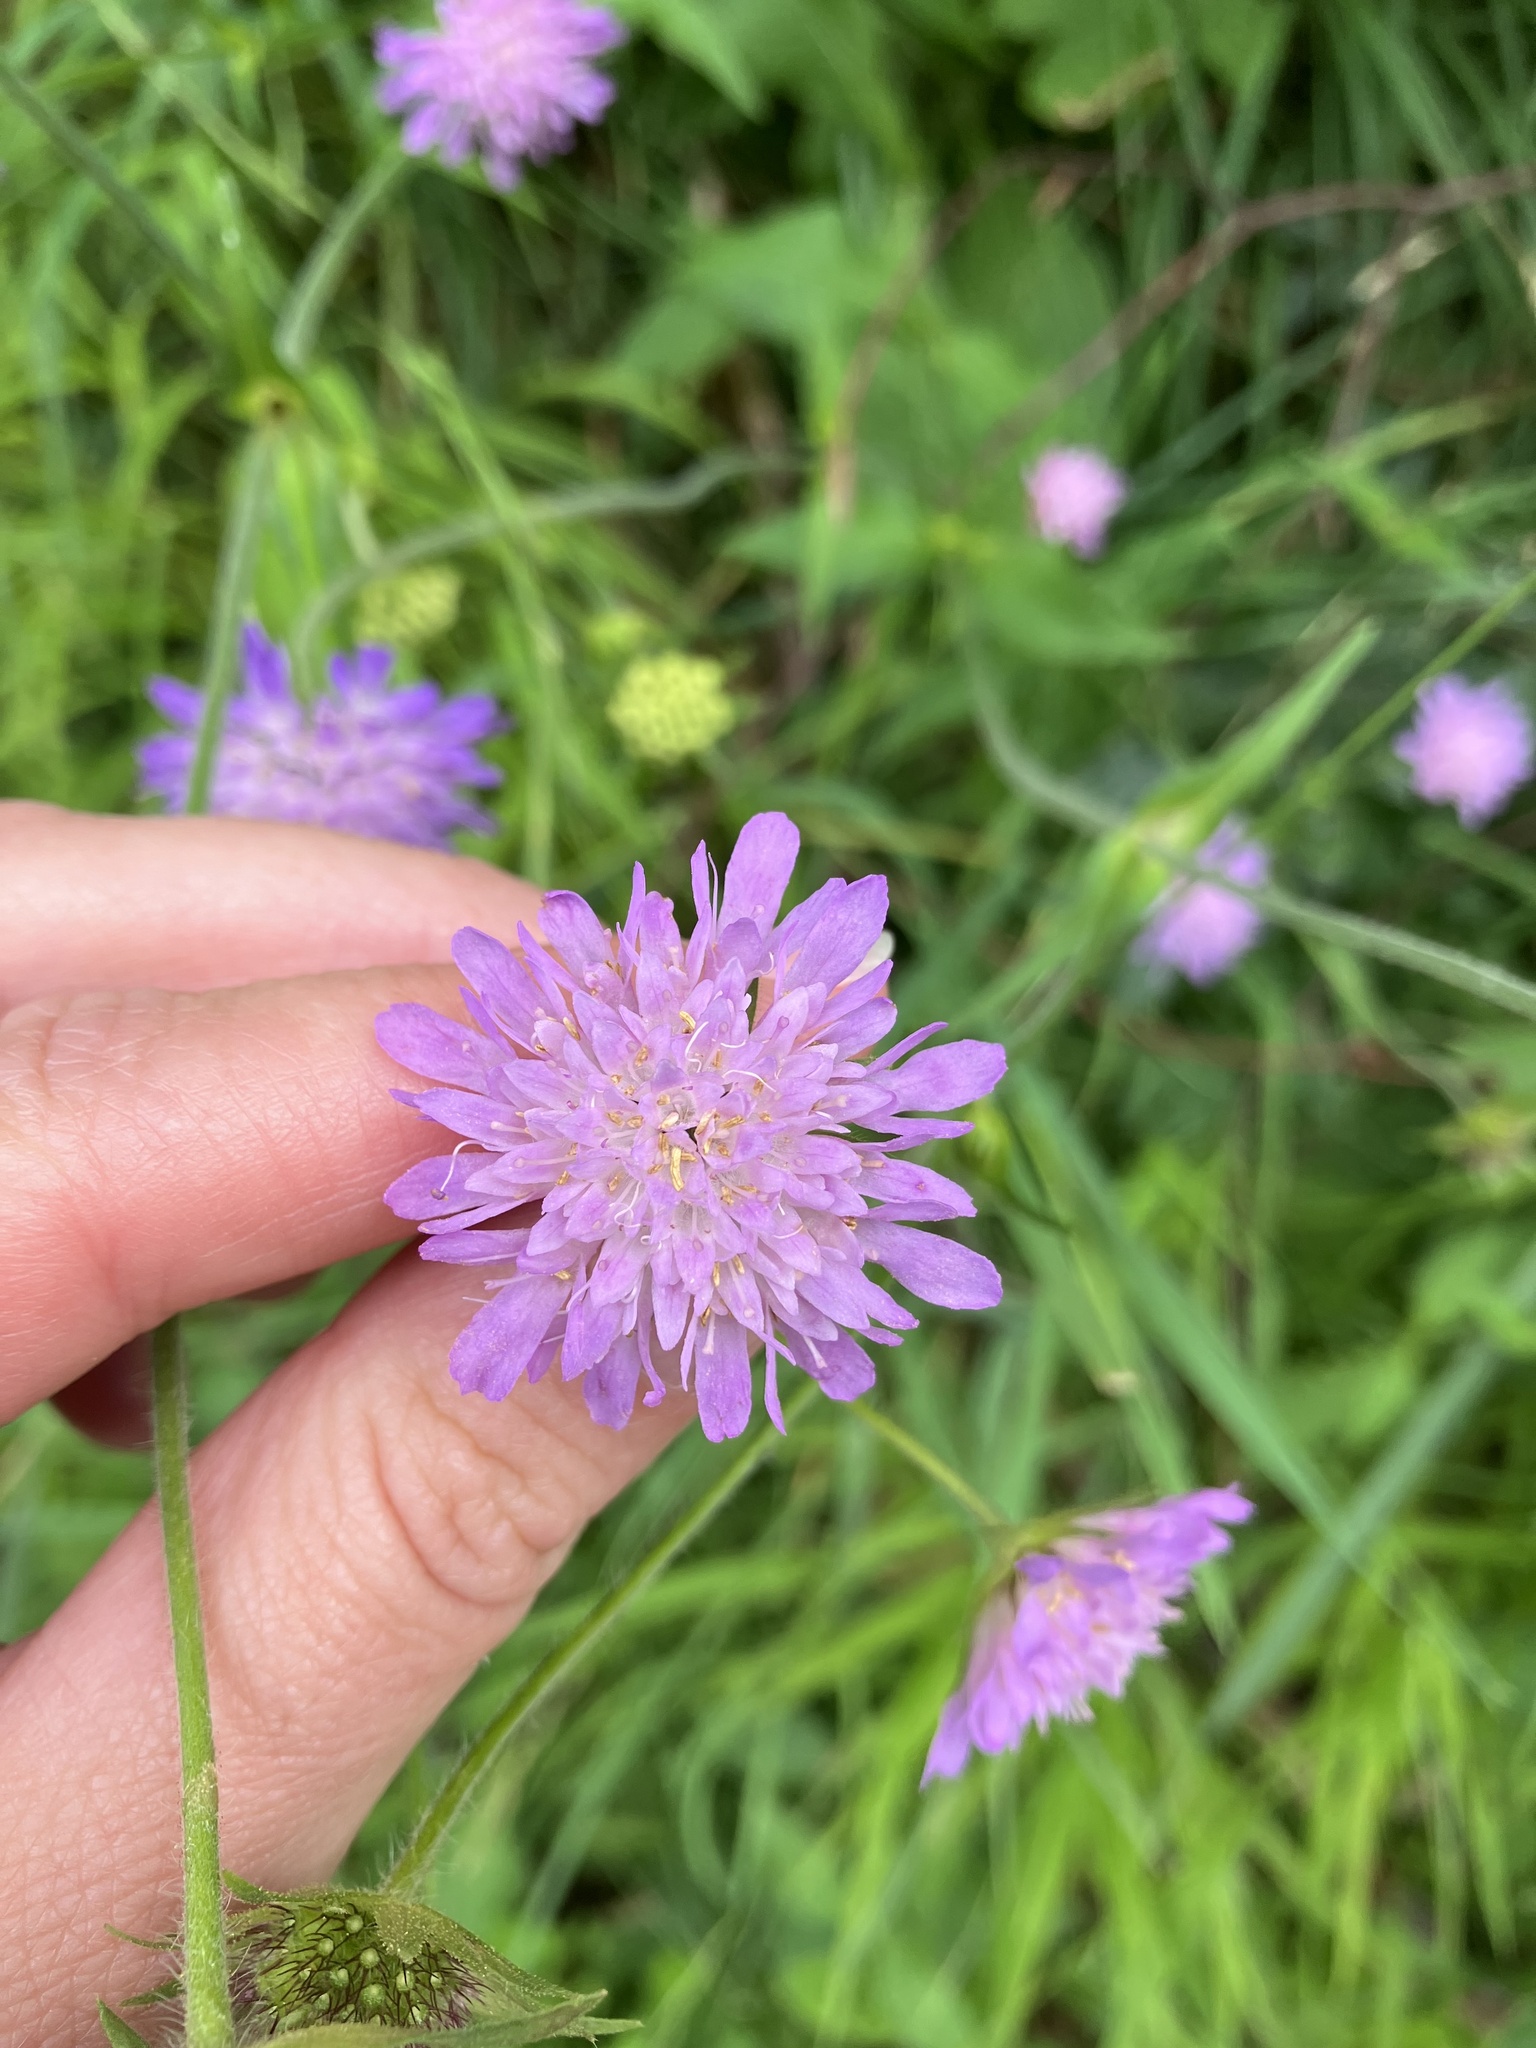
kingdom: Plantae
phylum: Tracheophyta
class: Magnoliopsida
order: Dipsacales
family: Caprifoliaceae
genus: Knautia
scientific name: Knautia dipsacifolia
